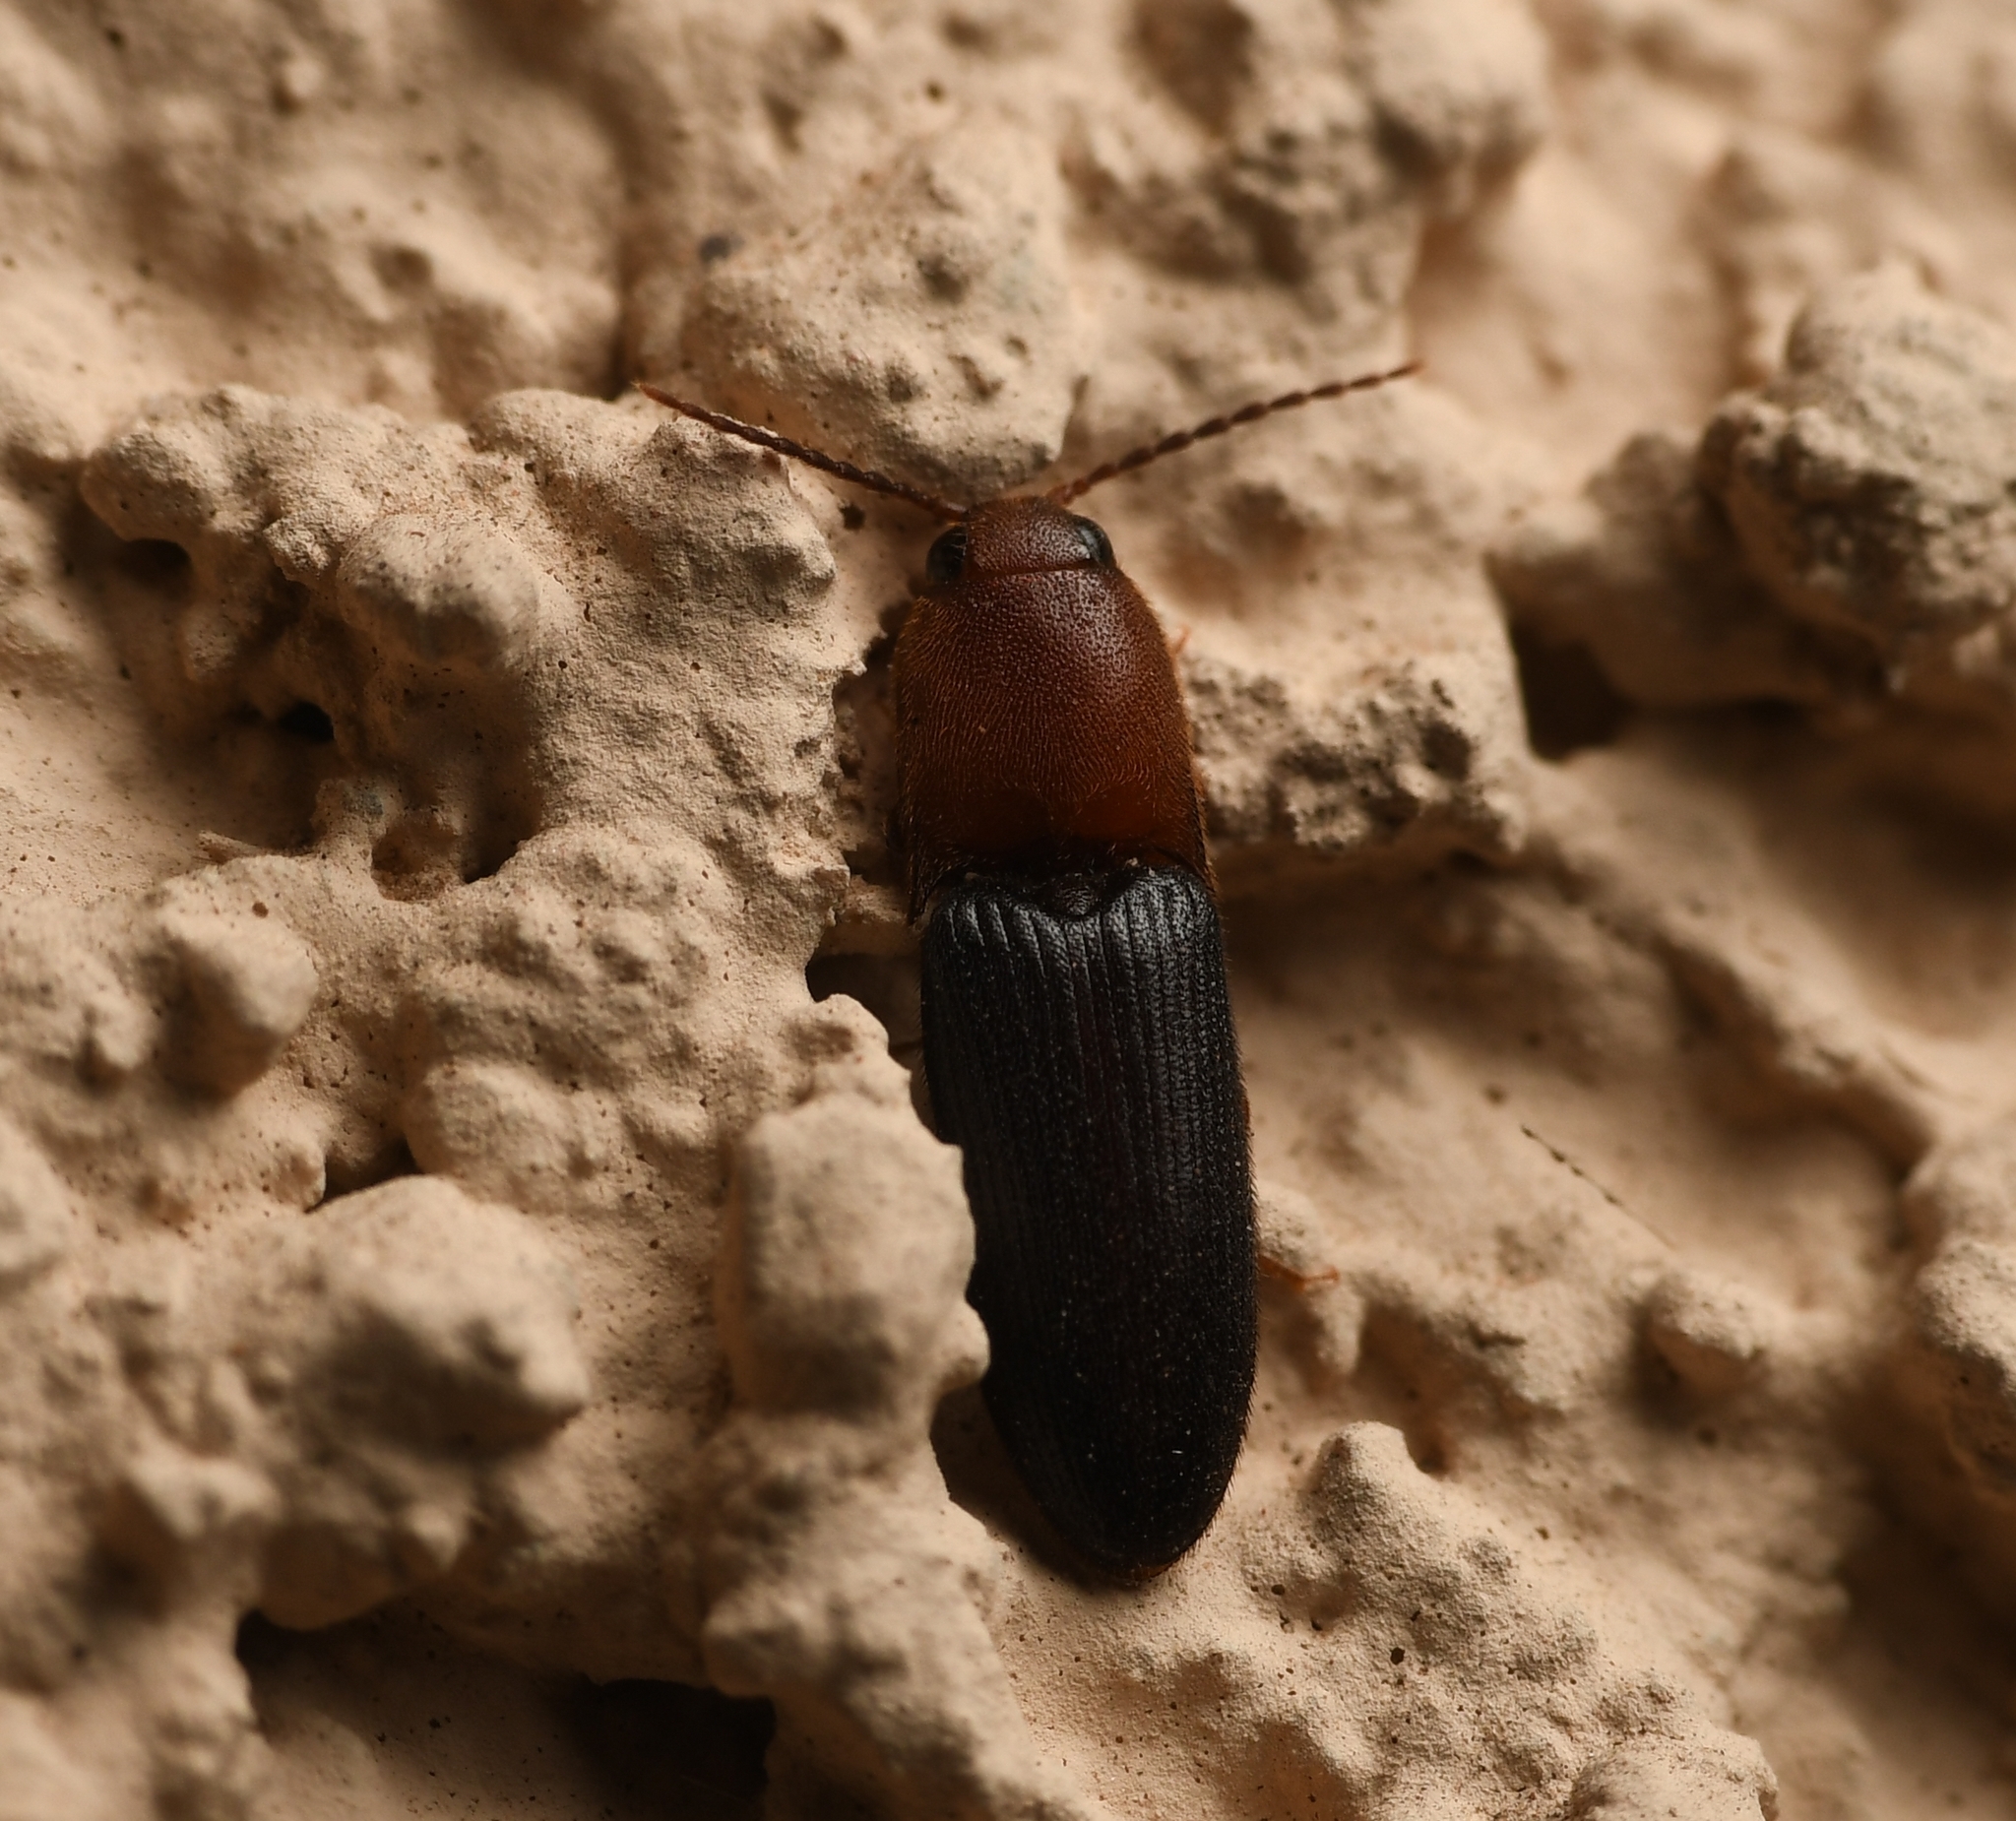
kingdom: Animalia
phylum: Arthropoda
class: Insecta
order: Coleoptera
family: Elateridae
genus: Anchastus
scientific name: Anchastus
